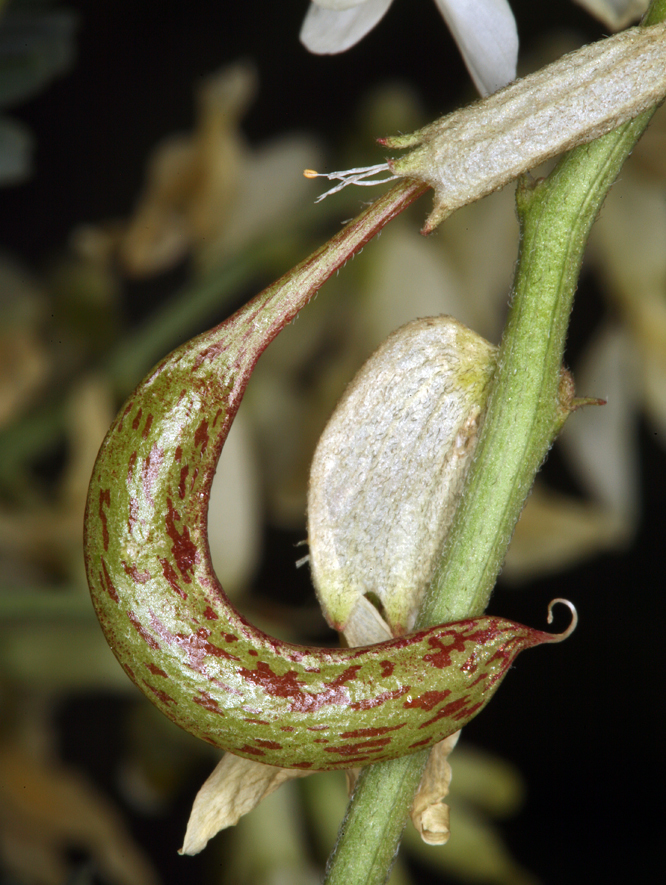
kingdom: Plantae
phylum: Tracheophyta
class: Magnoliopsida
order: Fabales
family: Fabaceae
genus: Astragalus
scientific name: Astragalus curvicarpus
